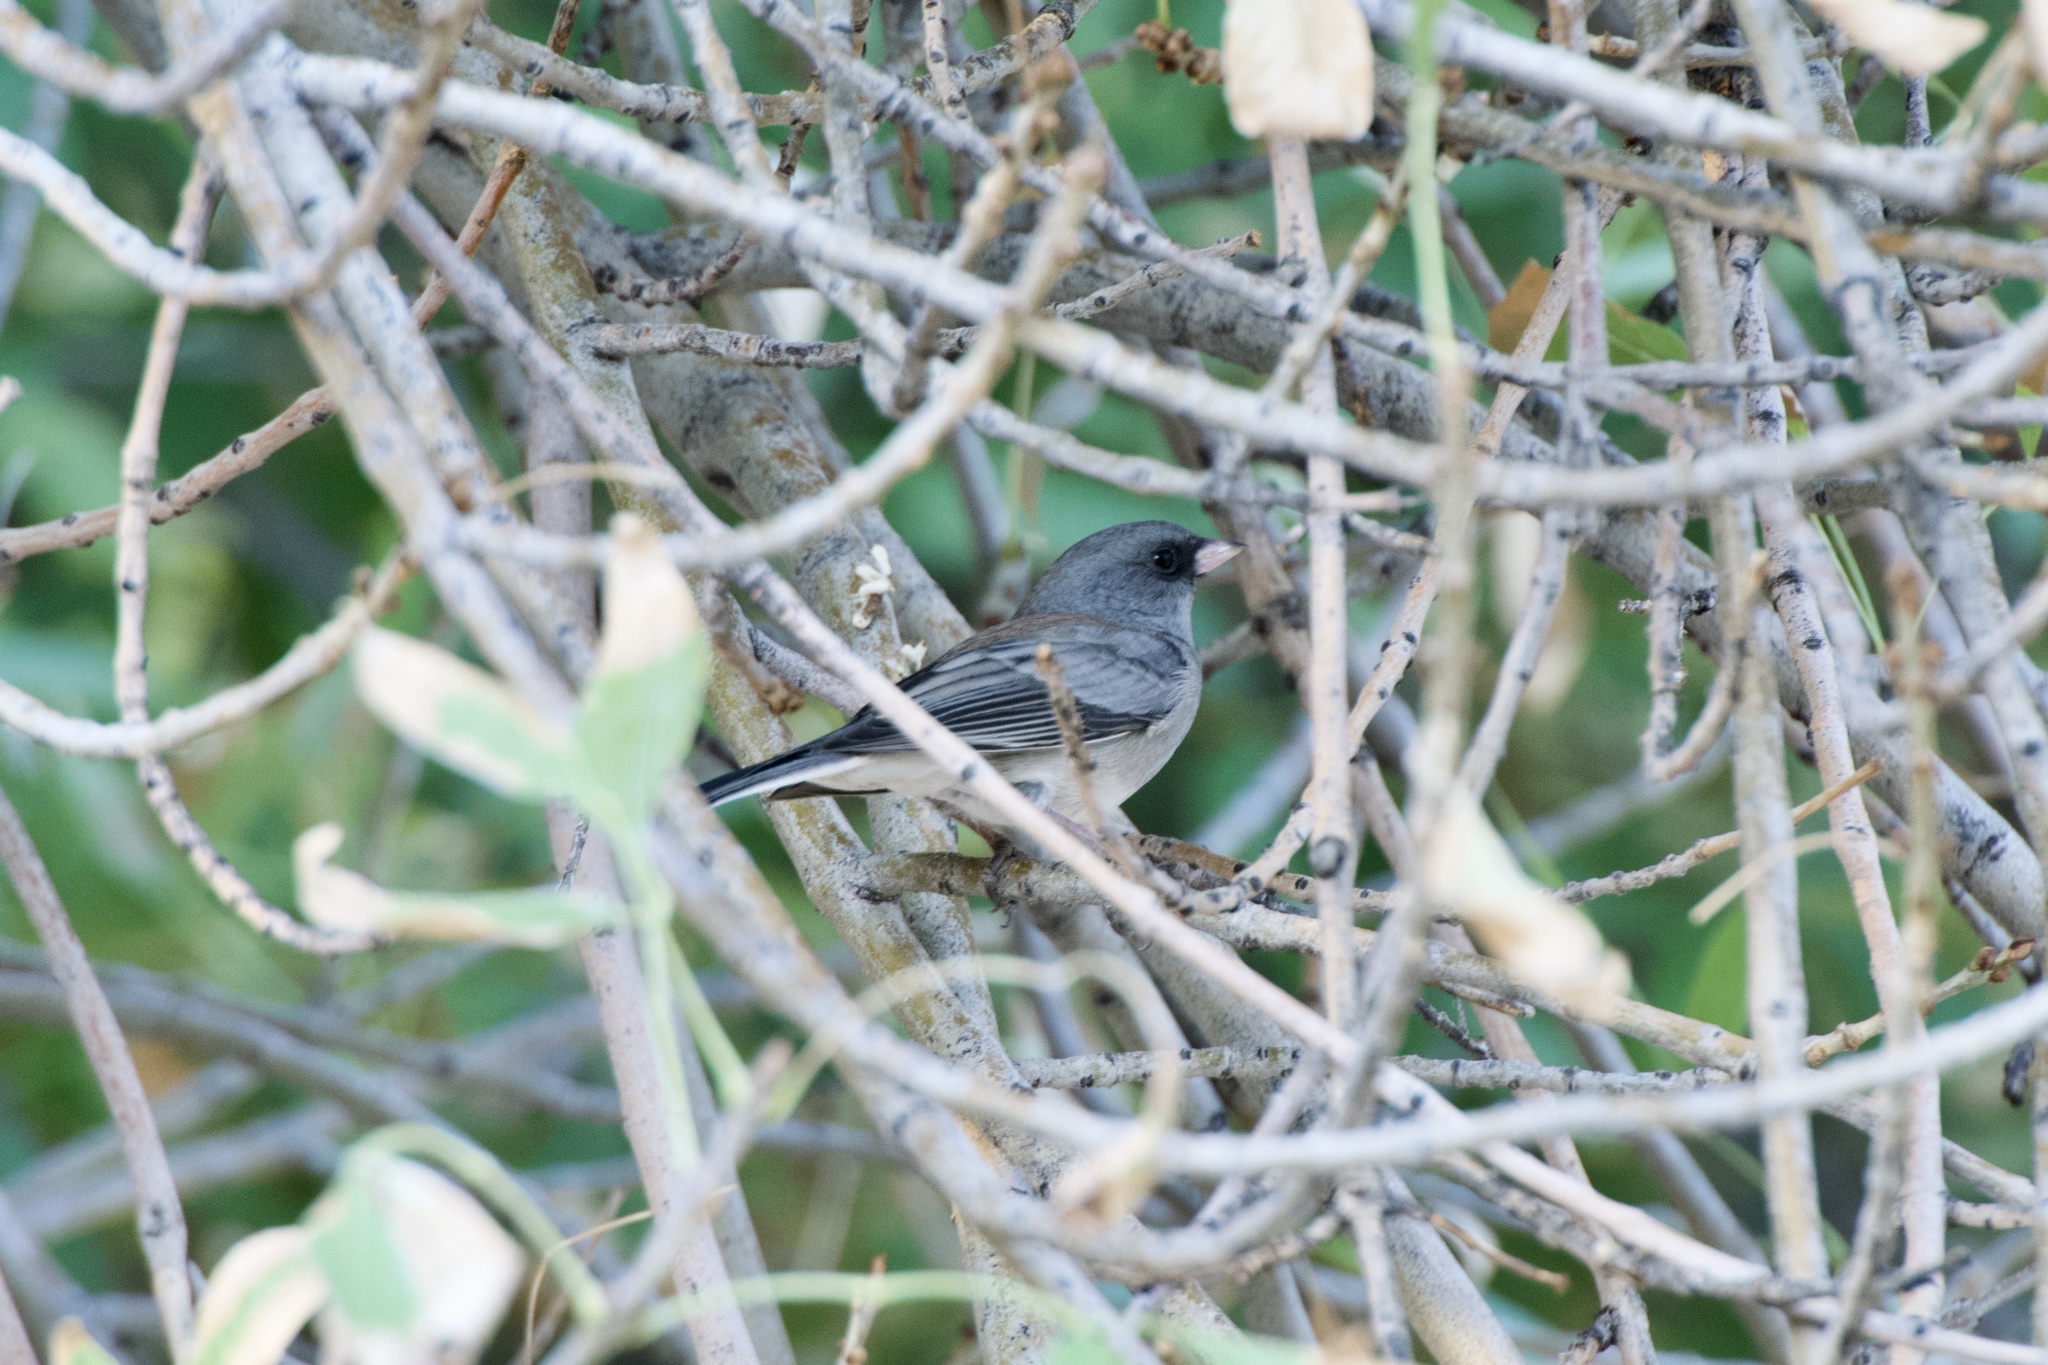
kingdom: Animalia
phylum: Chordata
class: Aves
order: Passeriformes
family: Passerellidae
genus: Junco
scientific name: Junco hyemalis
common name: Dark-eyed junco
